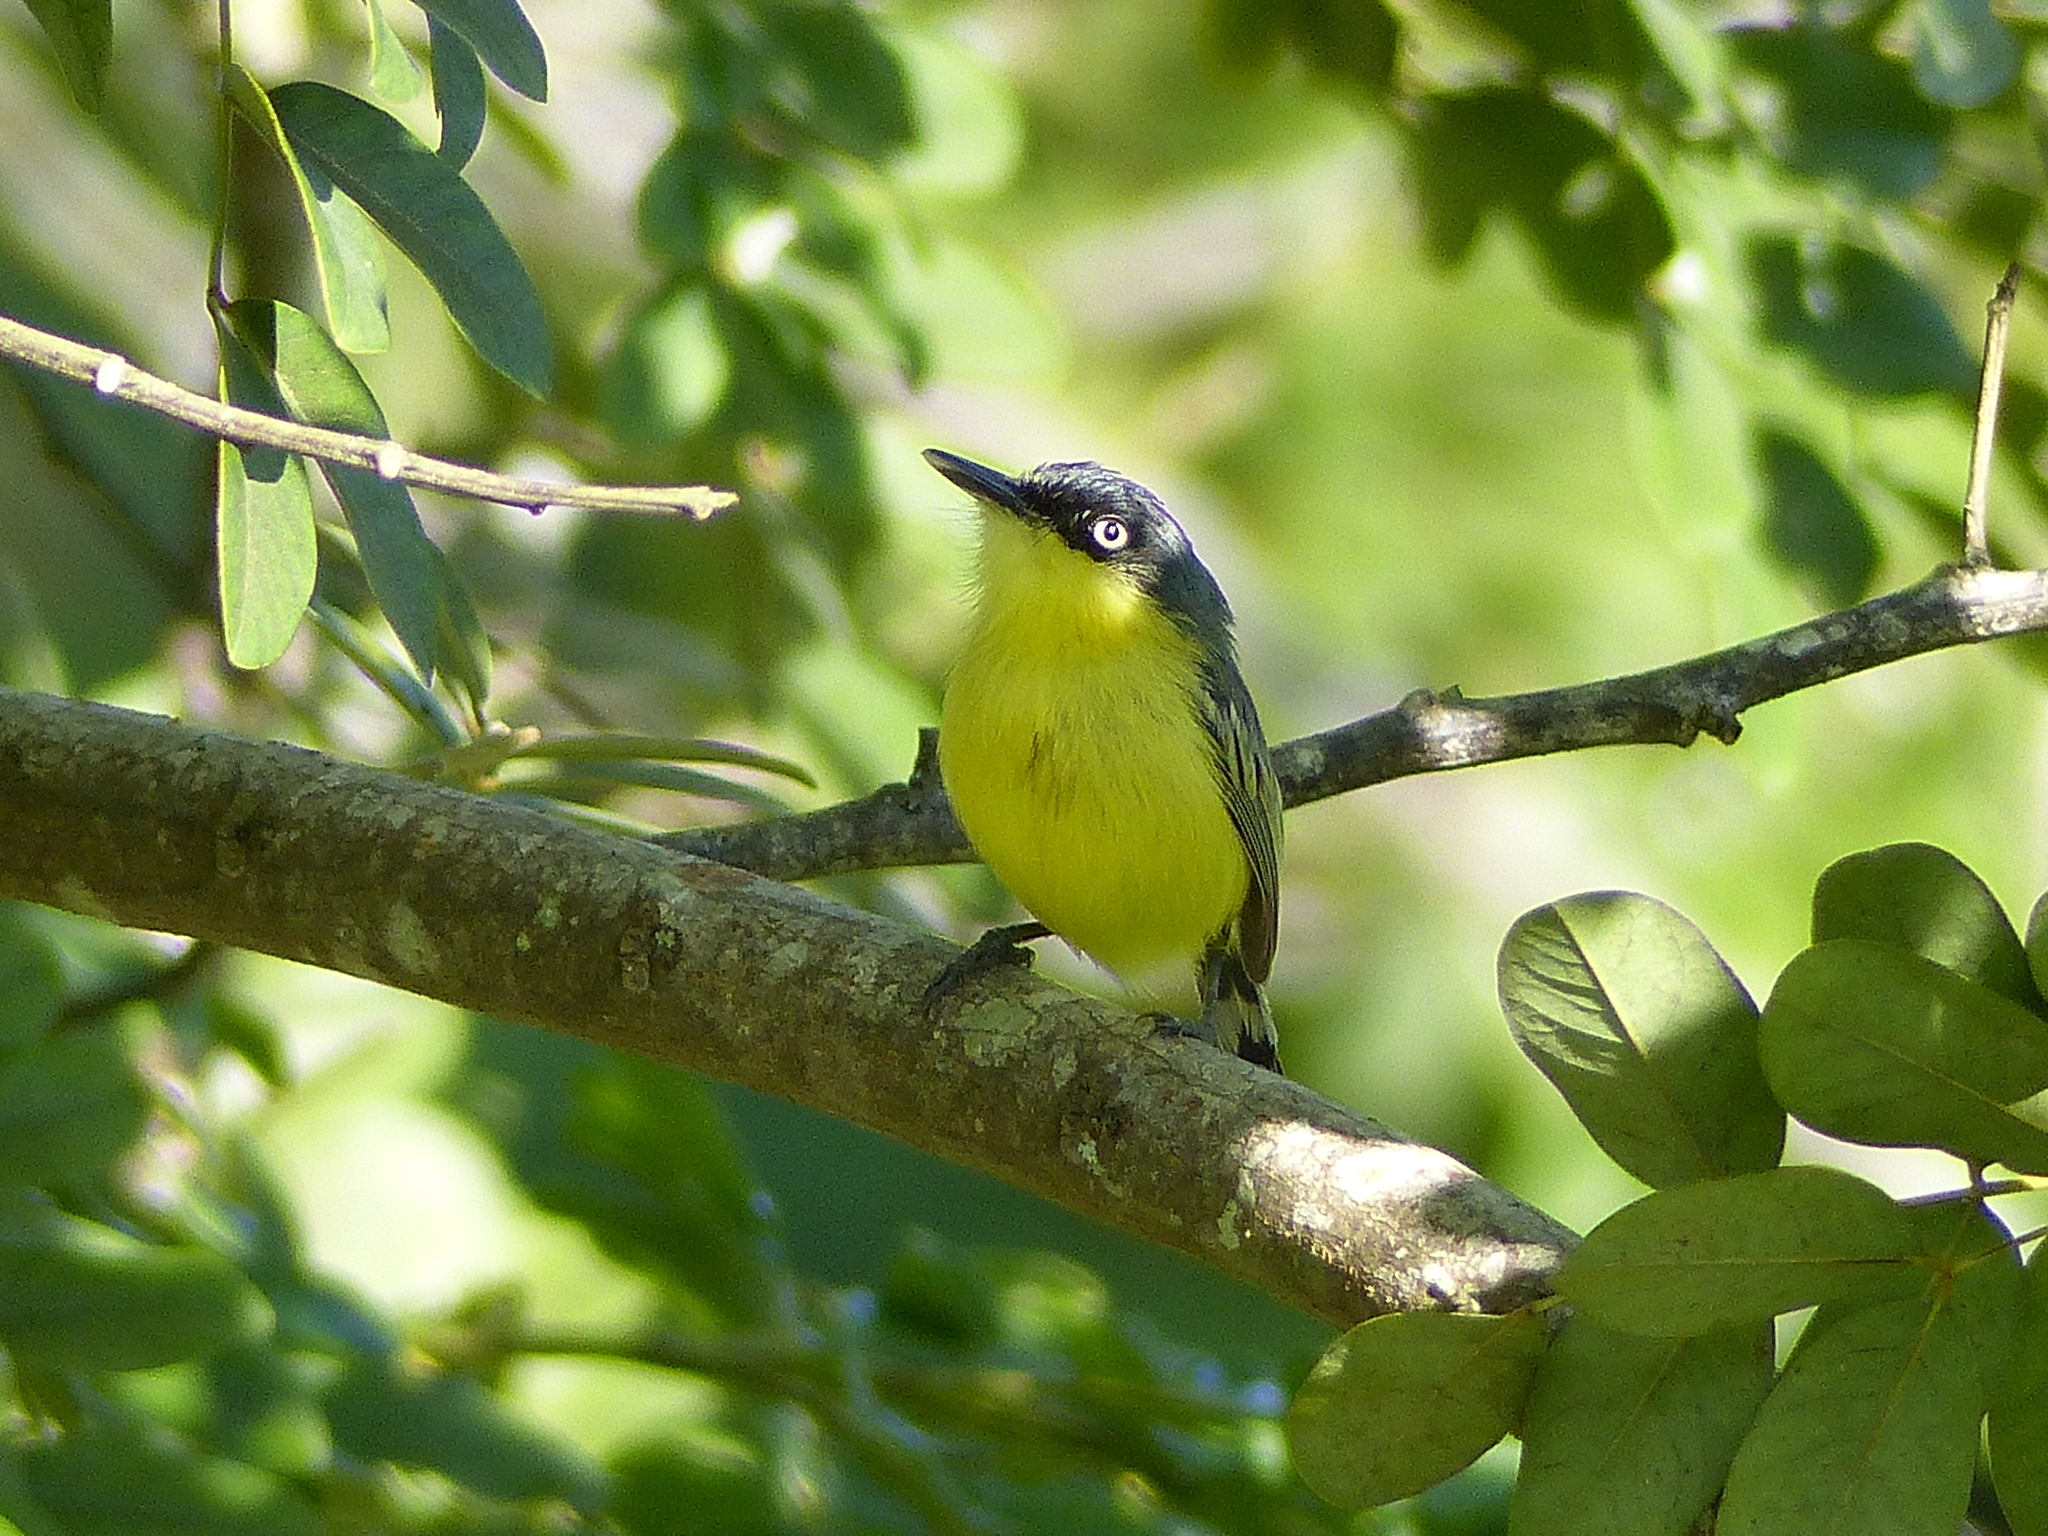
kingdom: Animalia
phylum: Chordata
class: Aves
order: Passeriformes
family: Tyrannidae
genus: Todirostrum
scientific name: Todirostrum cinereum
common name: Common tody-flycatcher
